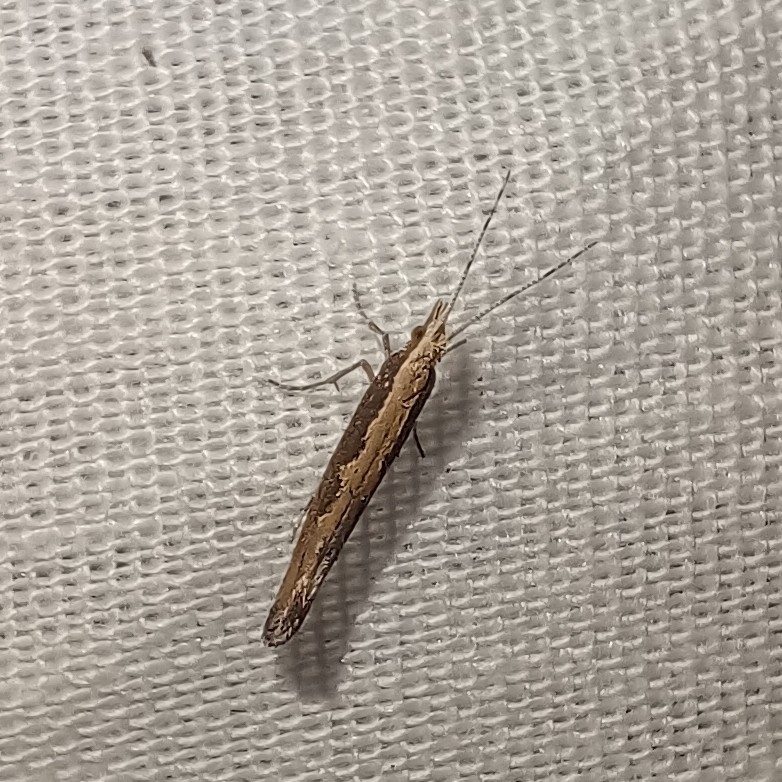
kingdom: Animalia
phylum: Arthropoda
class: Insecta
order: Lepidoptera
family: Plutellidae
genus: Plutella
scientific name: Plutella xylostella
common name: Diamond-back moth
